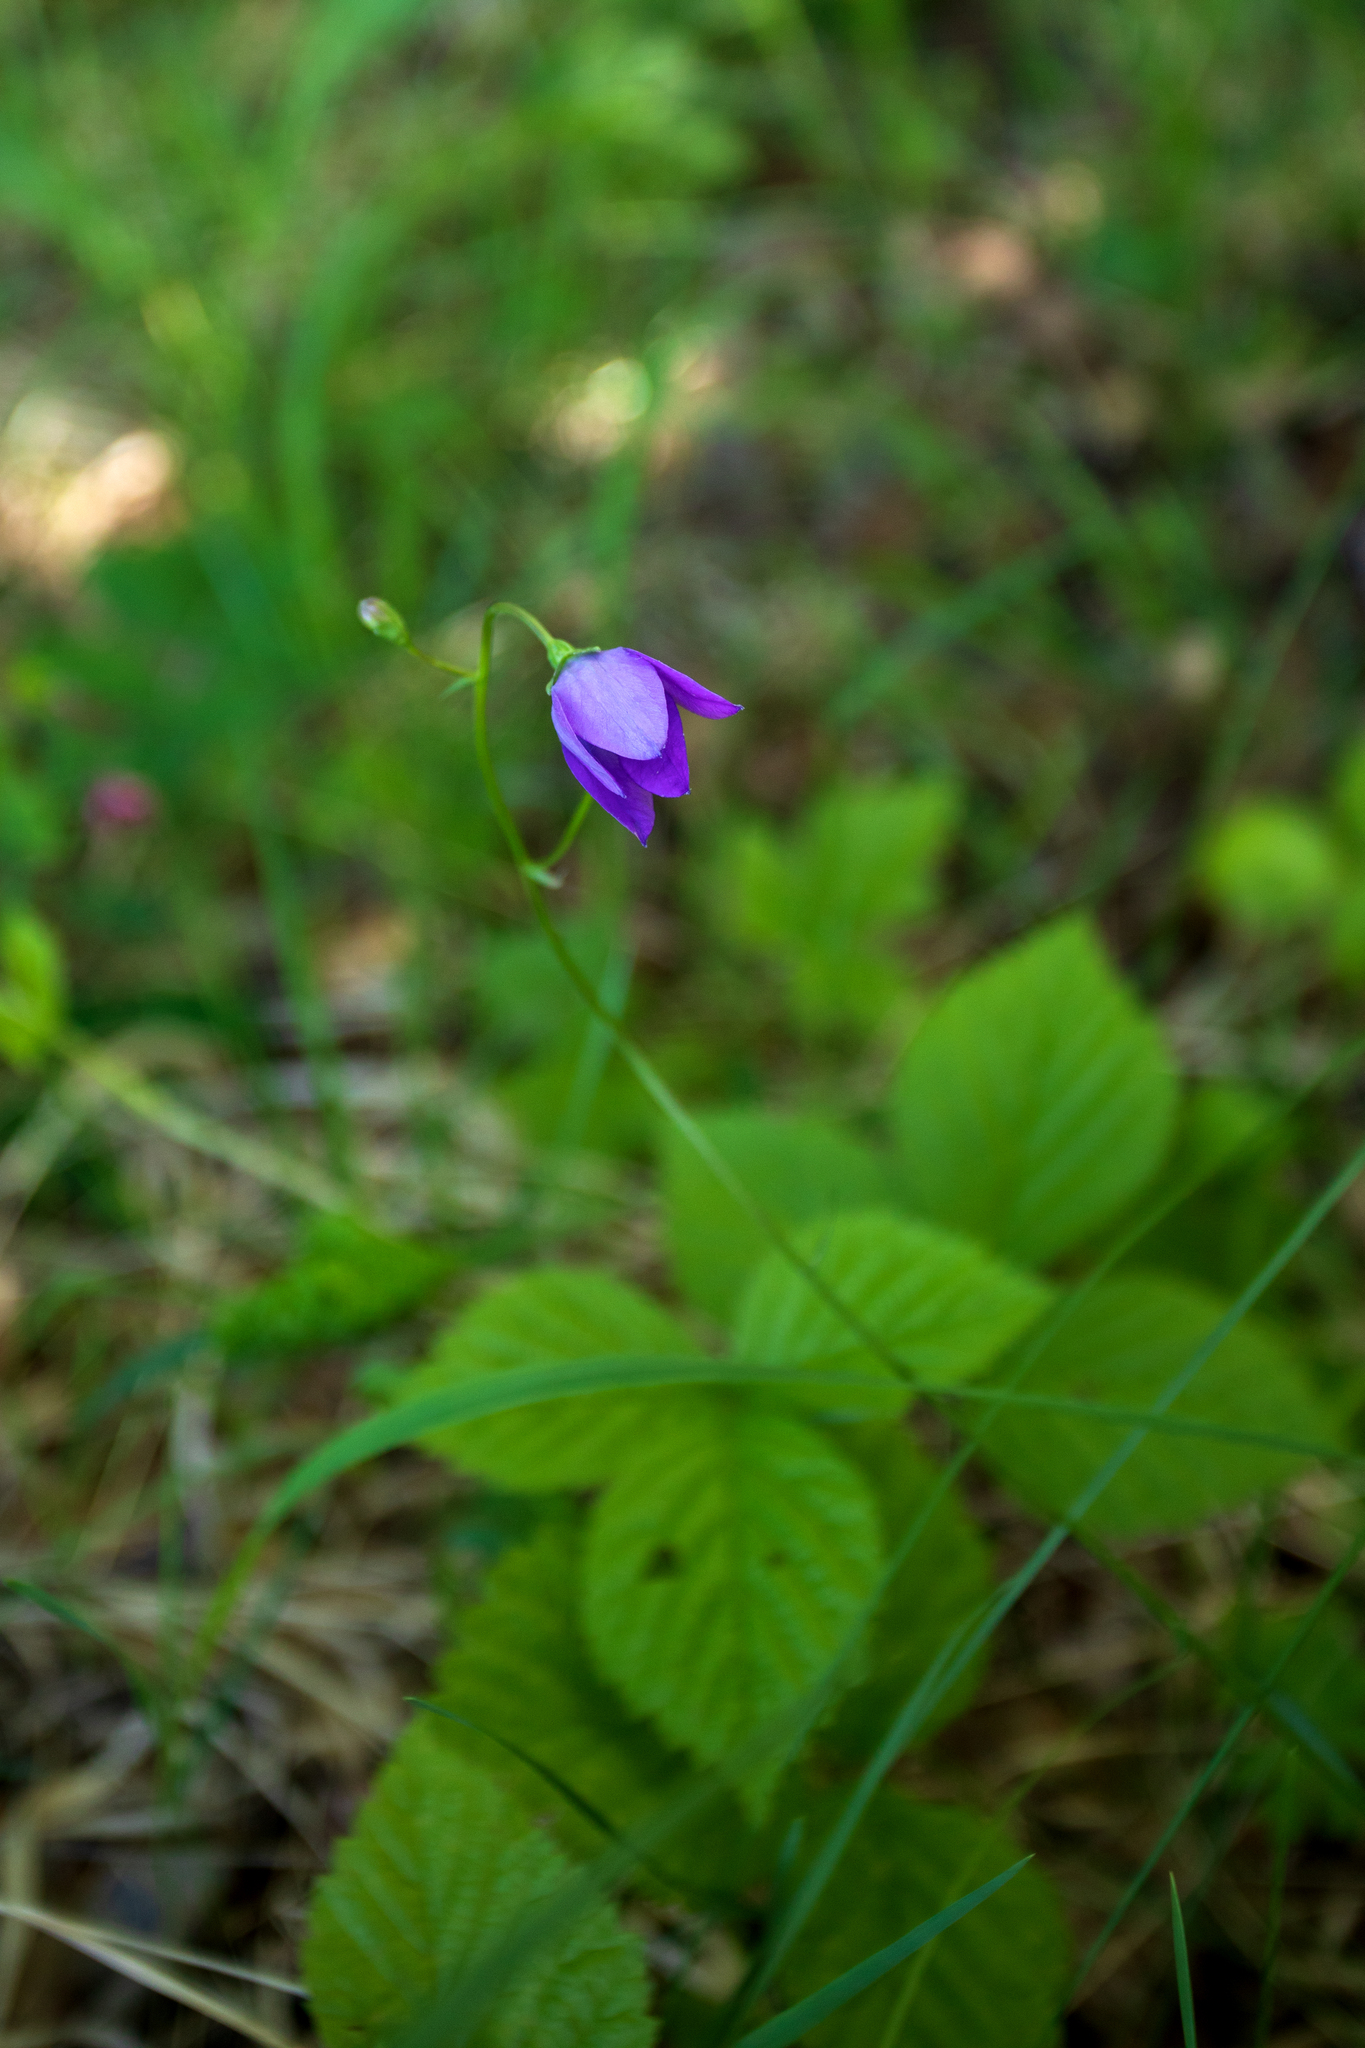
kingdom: Plantae
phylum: Tracheophyta
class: Magnoliopsida
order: Asterales
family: Campanulaceae
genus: Campanula
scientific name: Campanula stevenii
